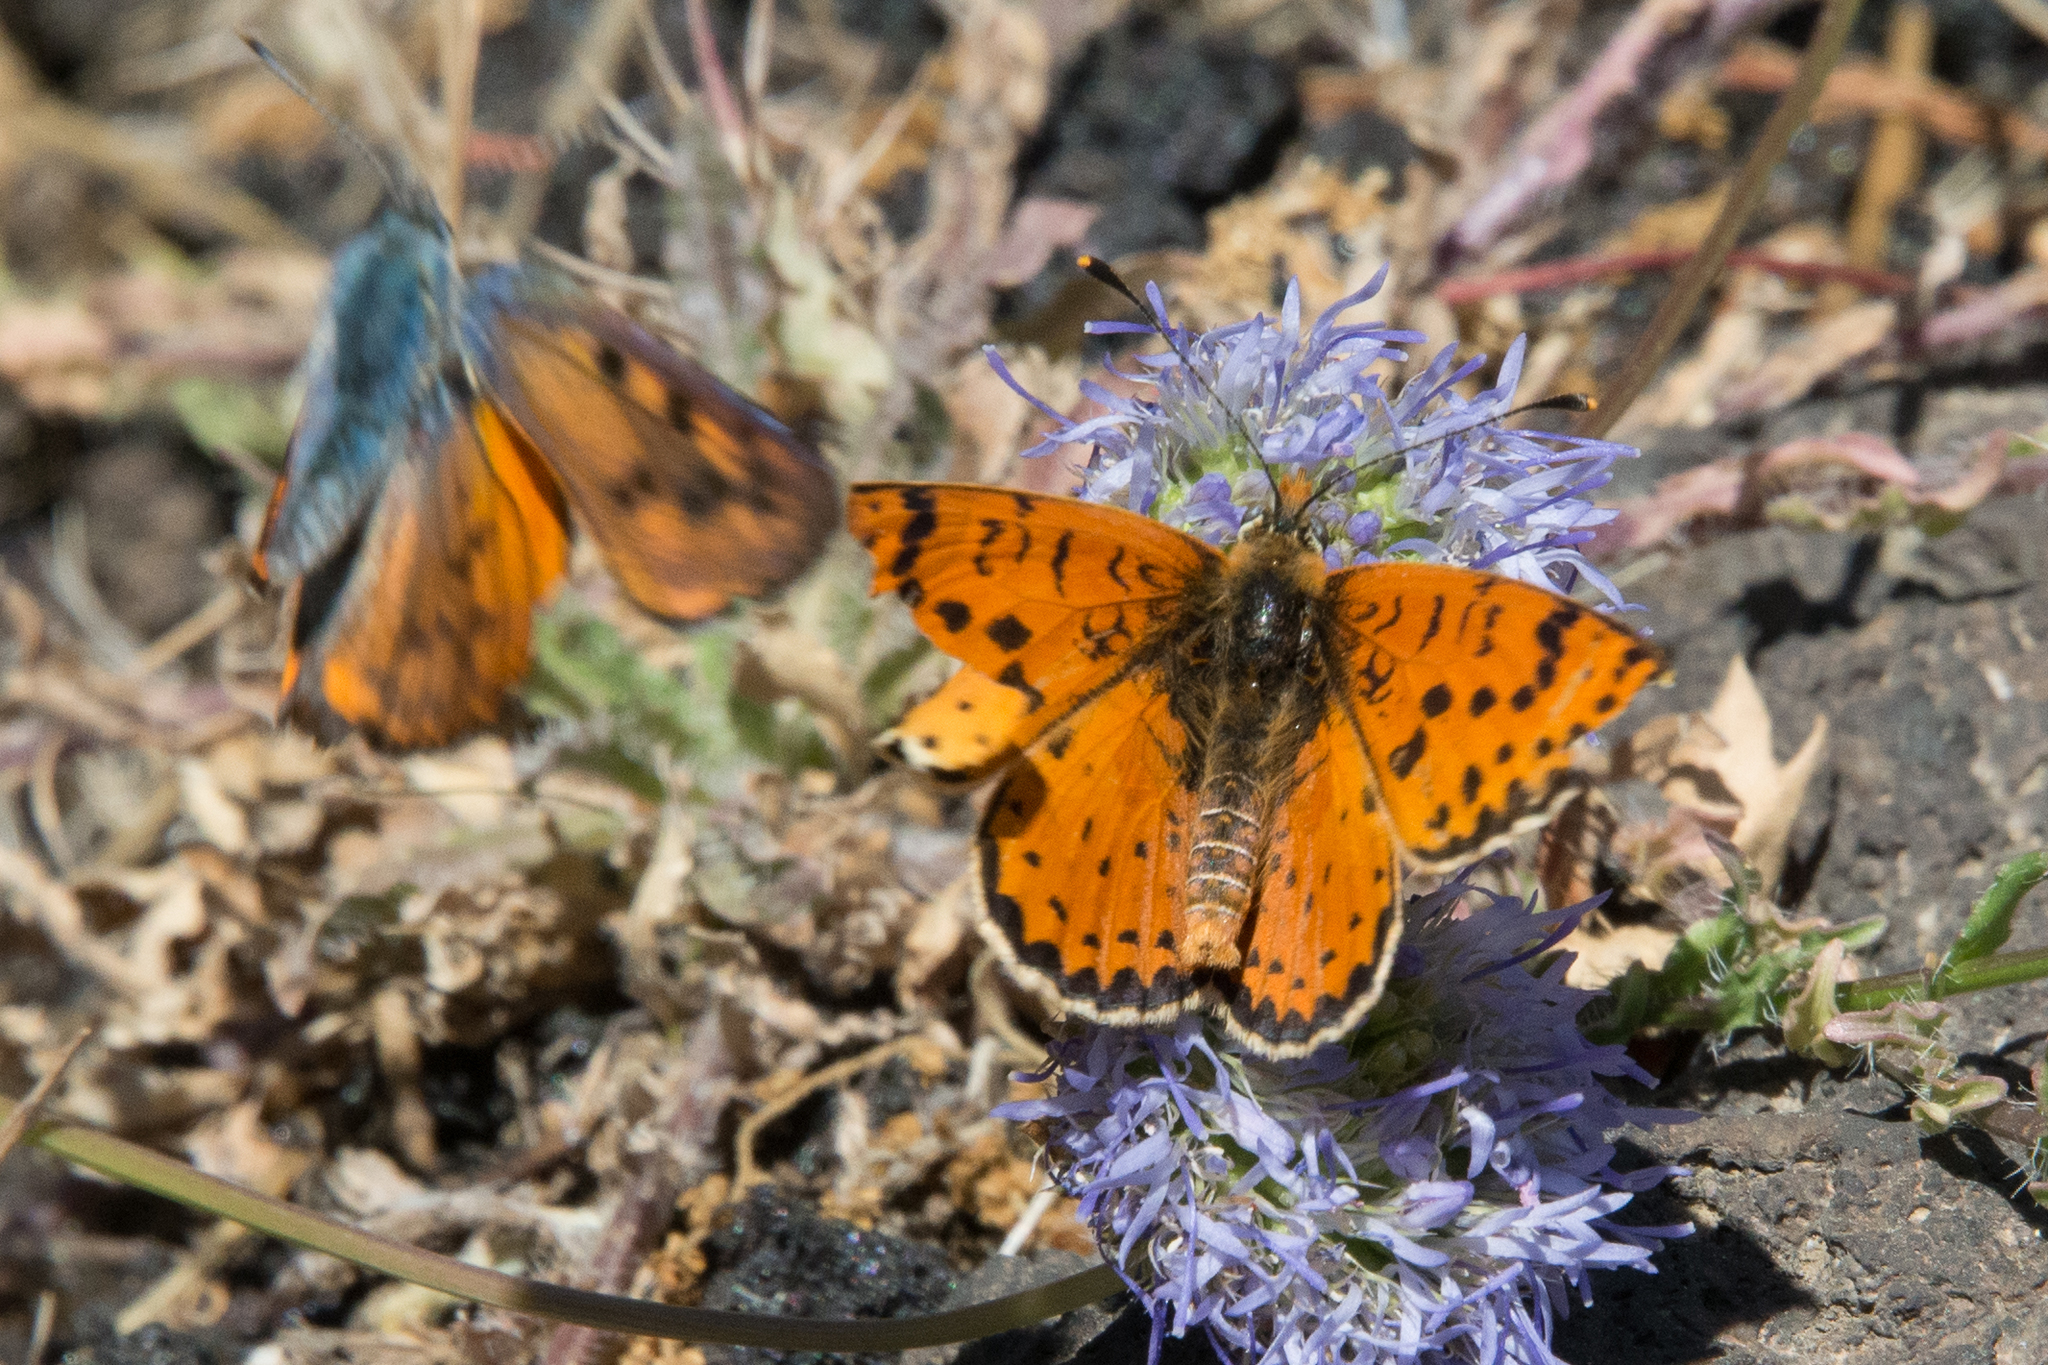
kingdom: Animalia
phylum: Arthropoda
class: Insecta
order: Lepidoptera
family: Nymphalidae
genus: Melitaea
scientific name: Melitaea didyma
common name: Spotted fritillary
